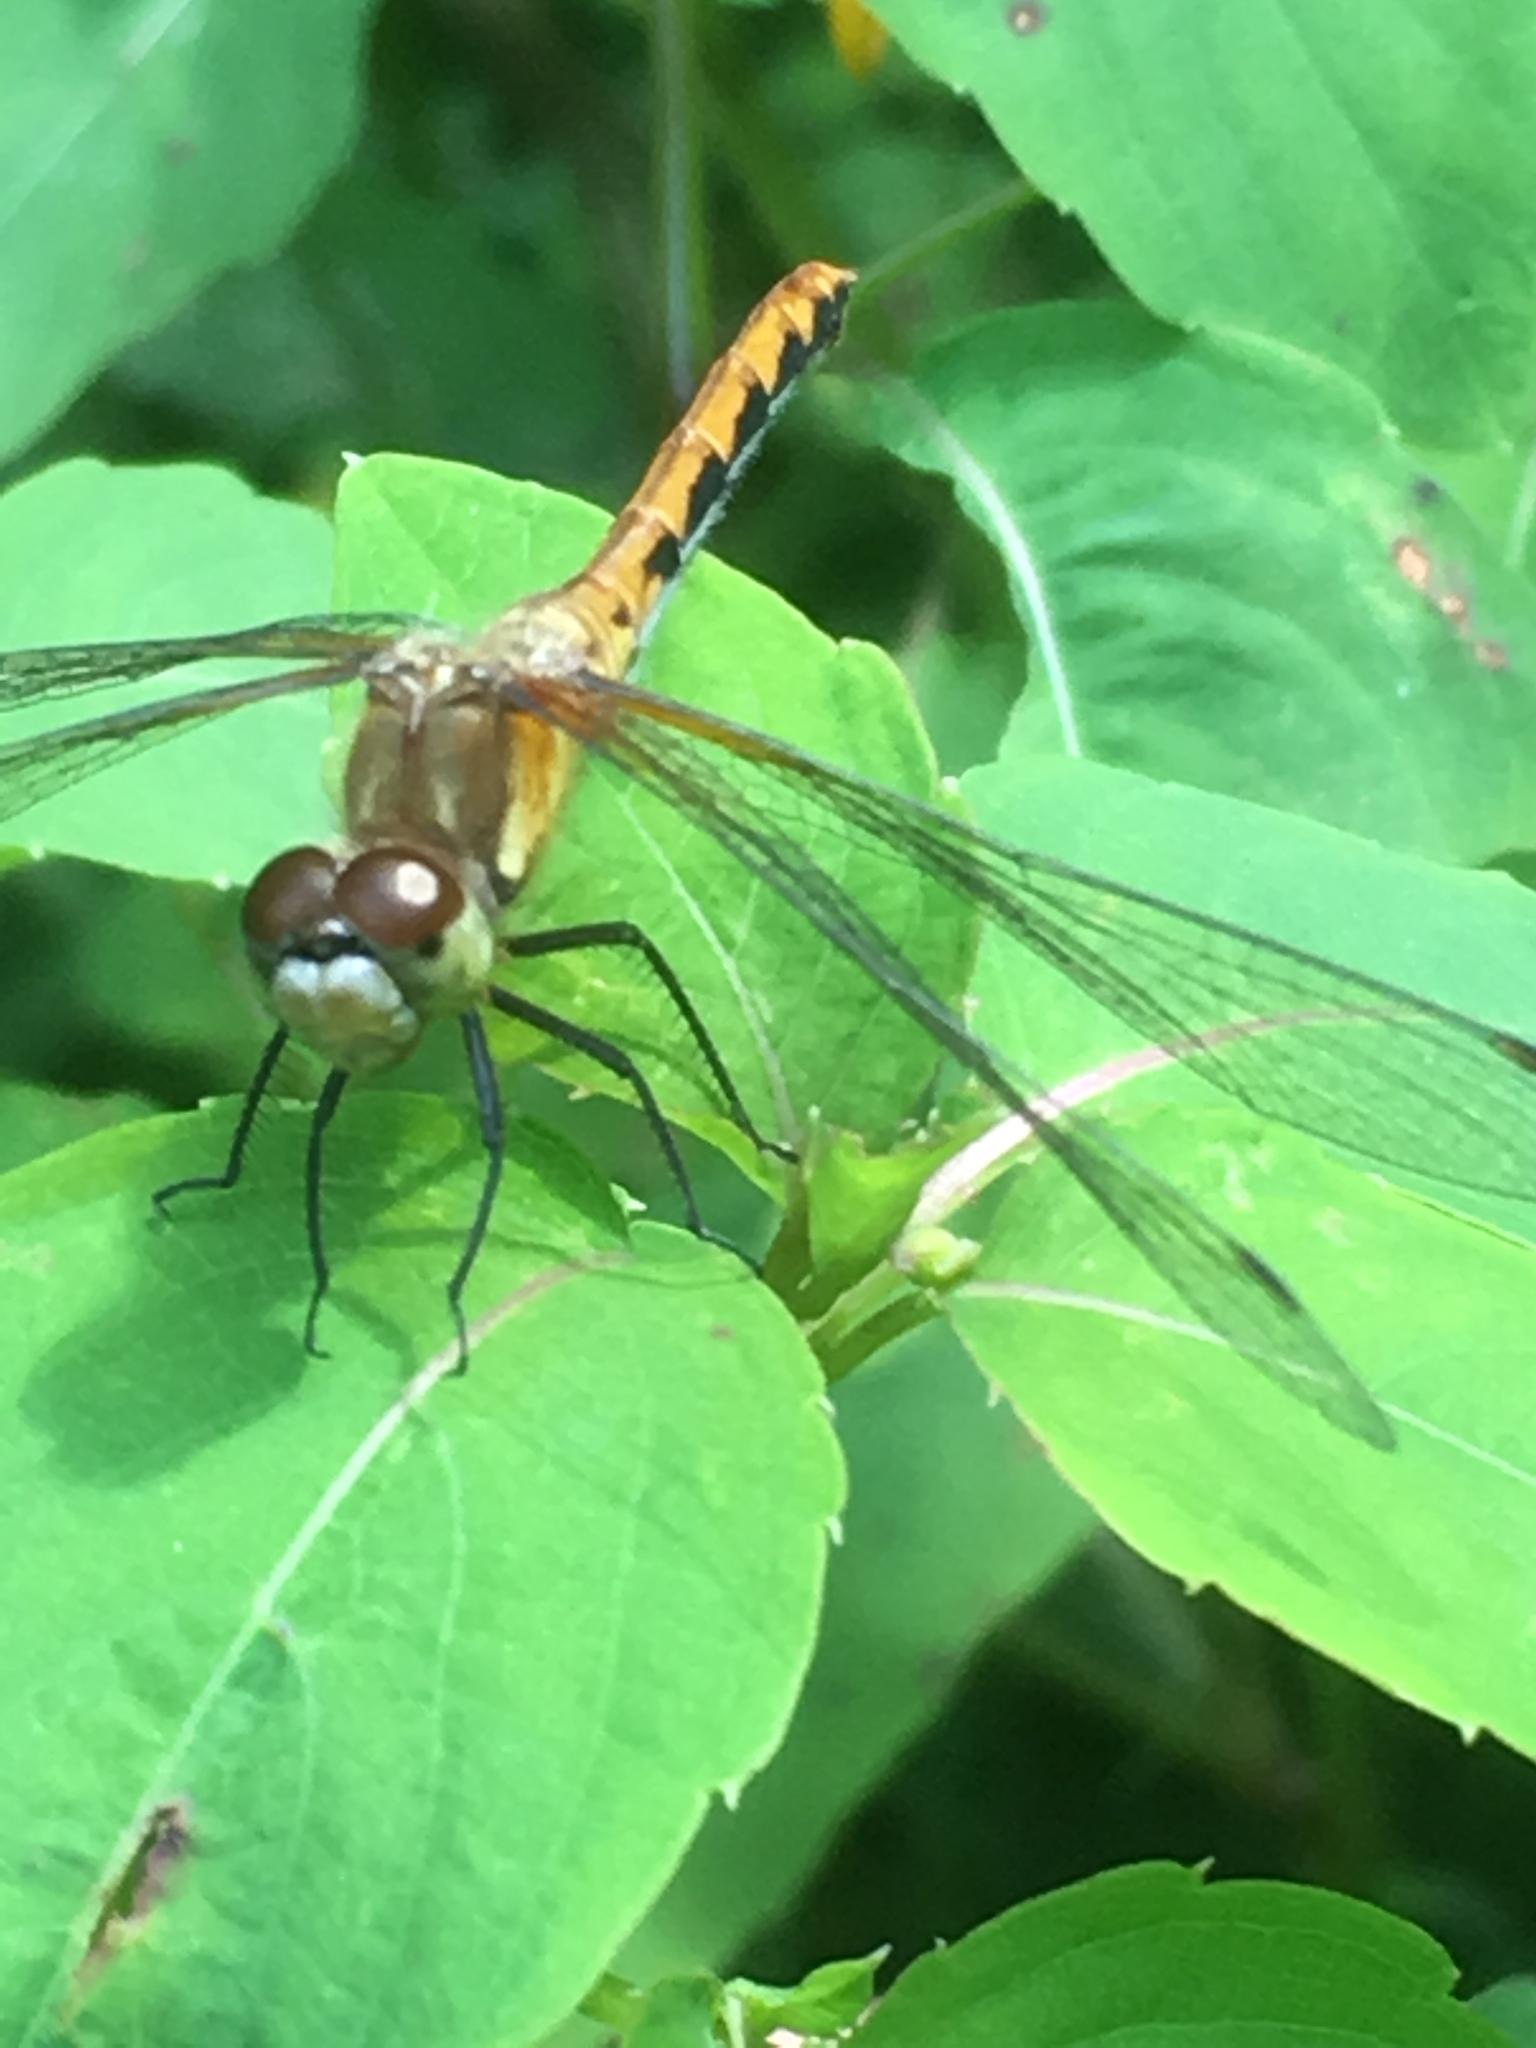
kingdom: Animalia
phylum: Arthropoda
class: Insecta
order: Odonata
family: Libellulidae
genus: Sympetrum
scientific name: Sympetrum obtrusum
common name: White-faced meadowhawk
